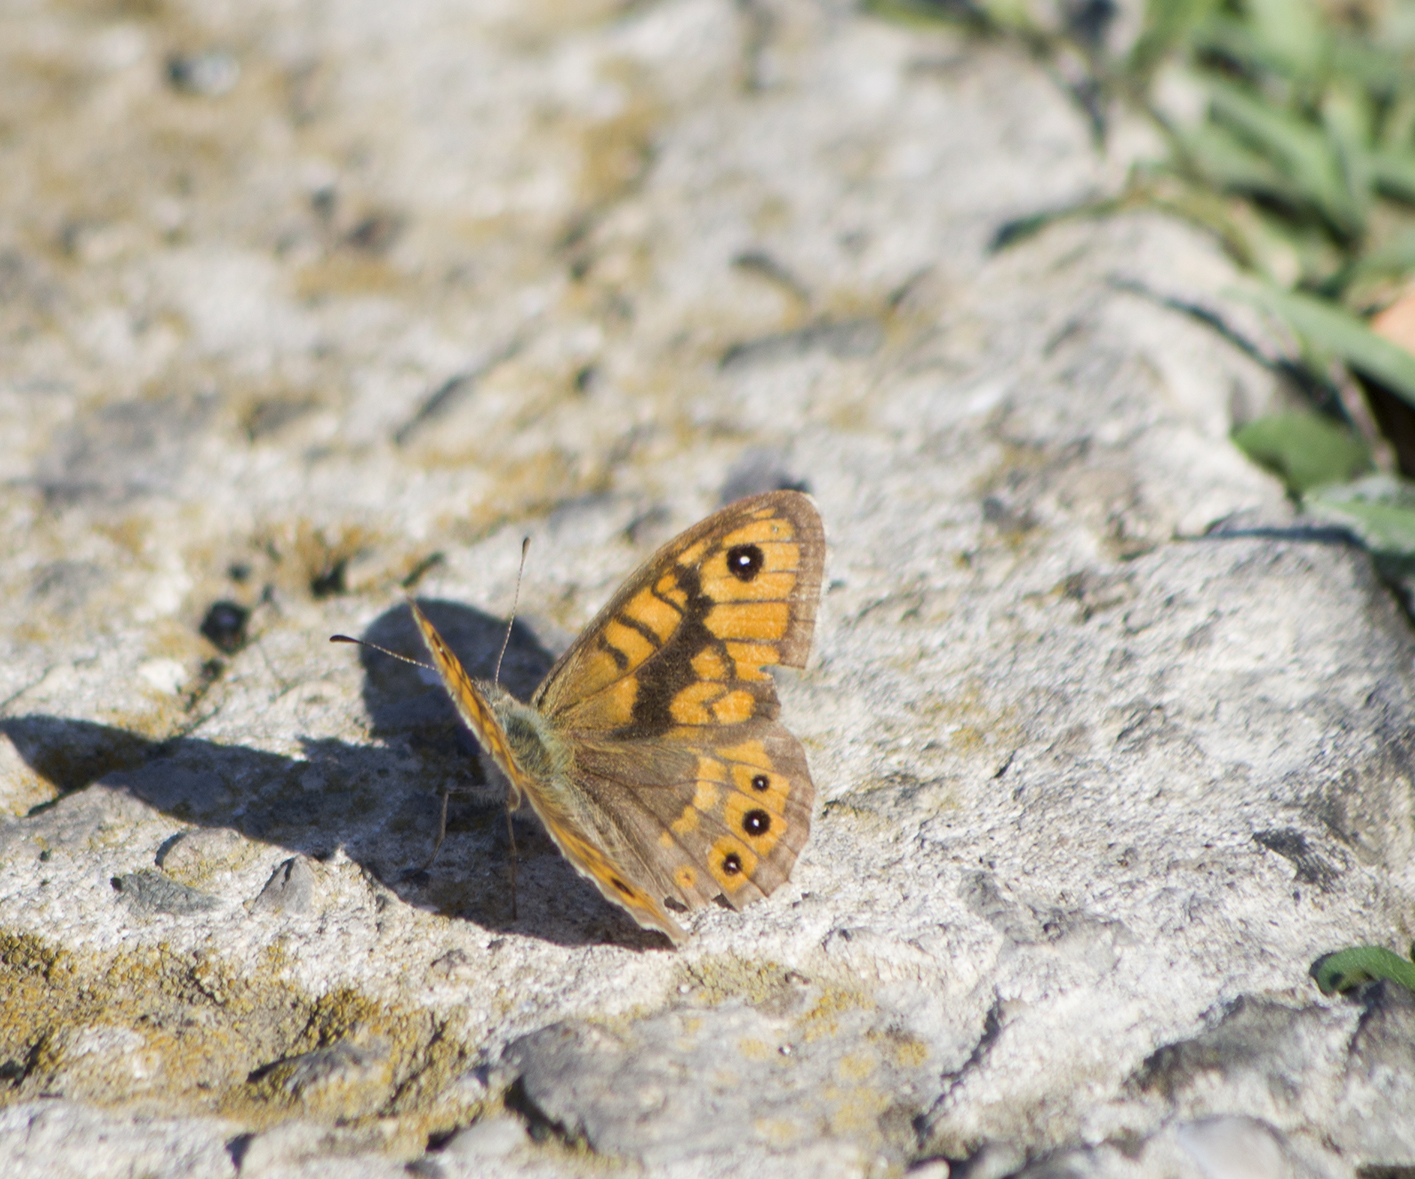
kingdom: Animalia
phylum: Arthropoda
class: Insecta
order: Lepidoptera
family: Nymphalidae
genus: Pararge
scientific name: Pararge Lasiommata megera
